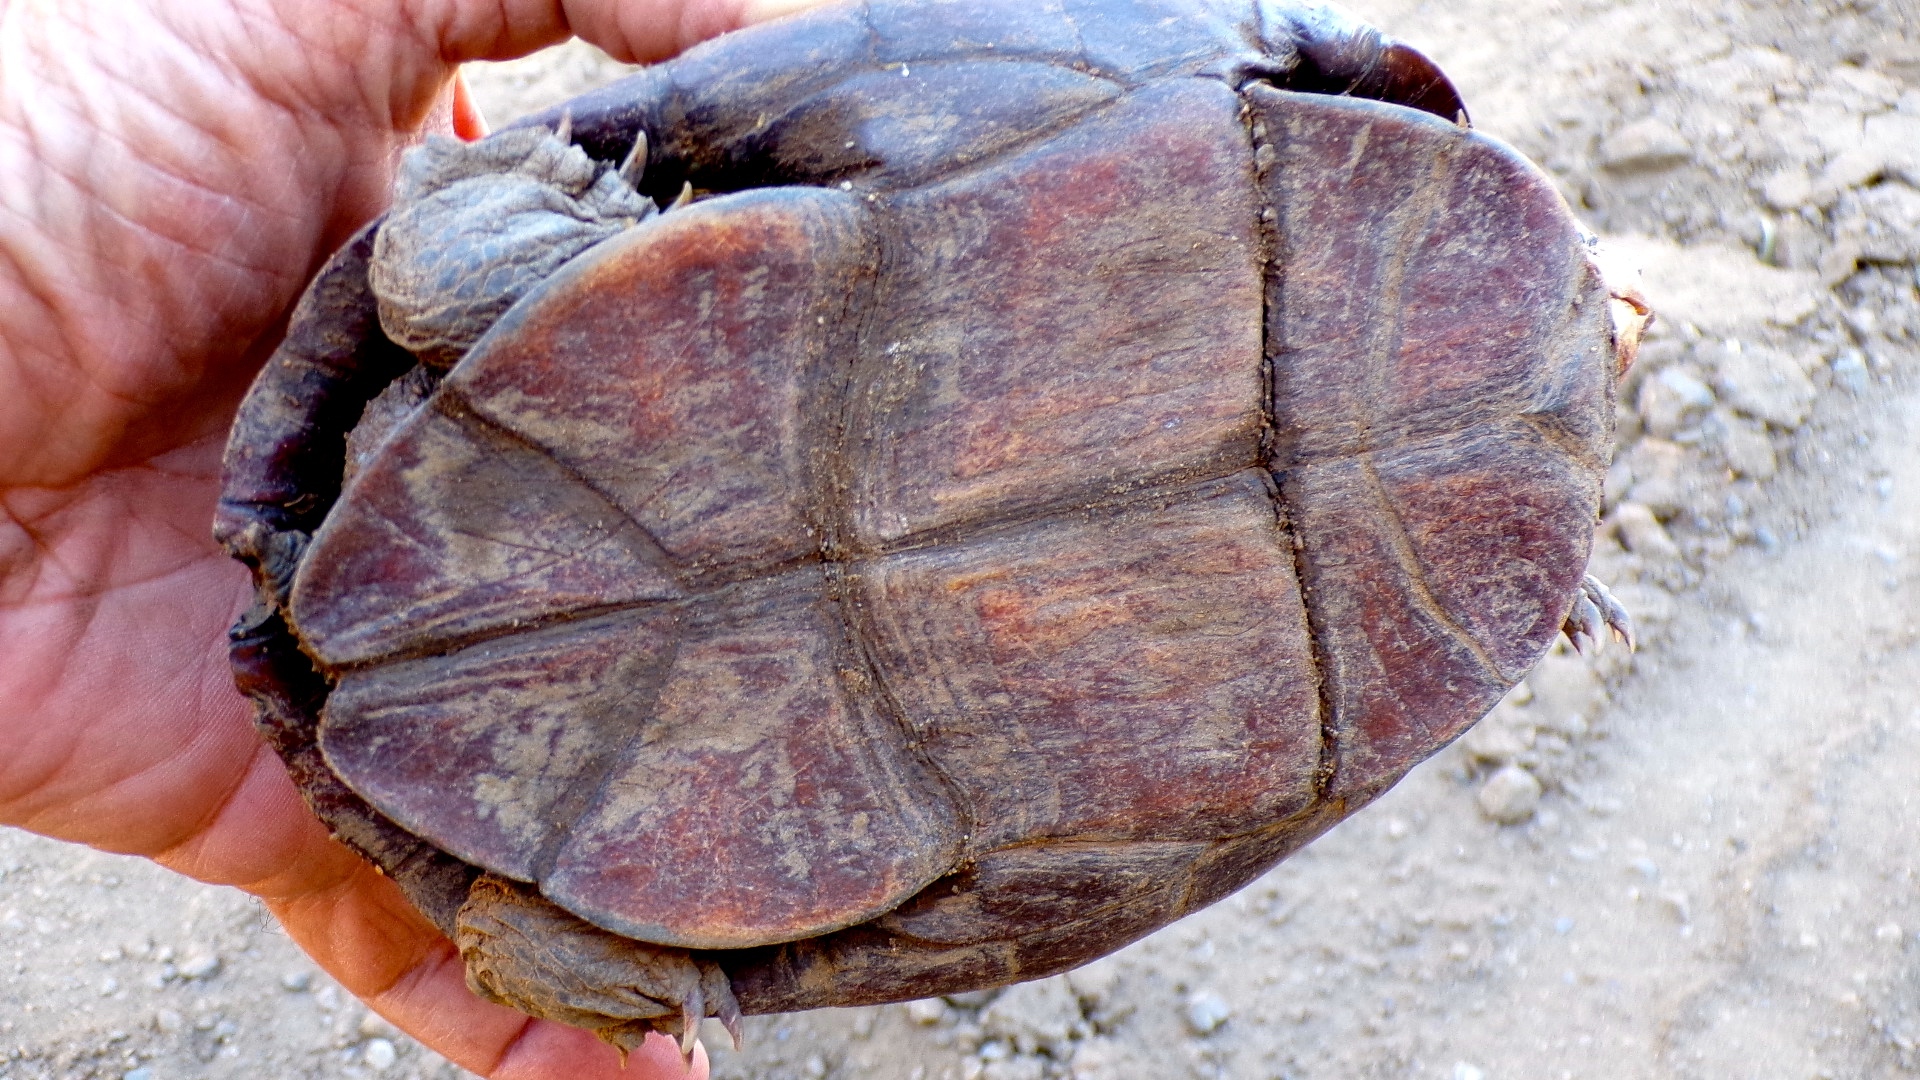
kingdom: Animalia
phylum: Chordata
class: Testudines
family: Kinosternidae
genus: Kinosternon
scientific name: Kinosternon integrum
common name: Mexican mud turtle
